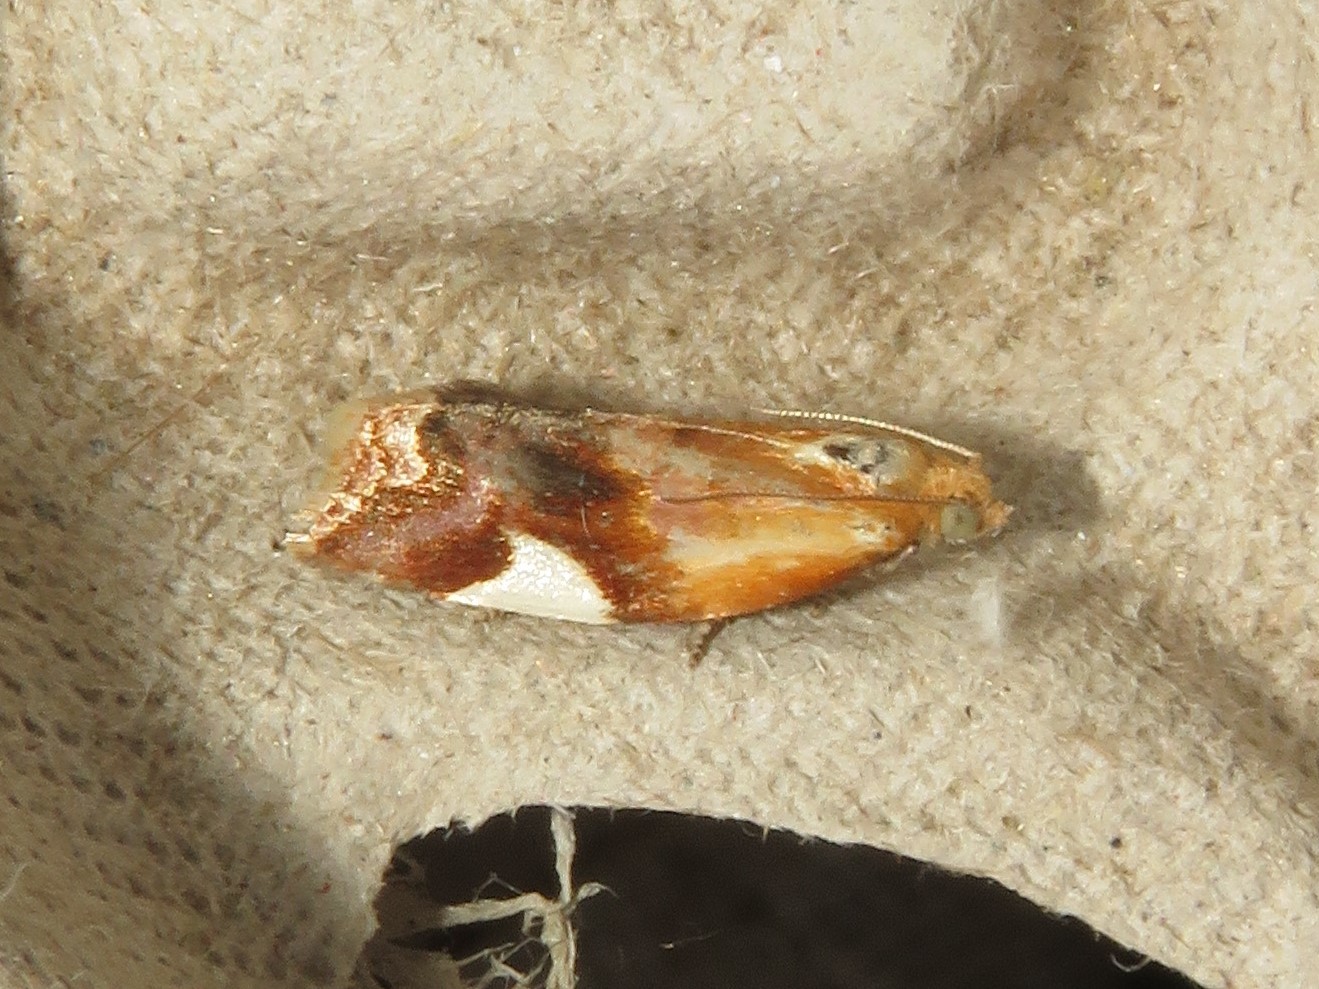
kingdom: Animalia
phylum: Arthropoda
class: Insecta
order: Lepidoptera
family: Tortricidae
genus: Clepsis
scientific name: Clepsis persicana
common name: White triangle tortrix
